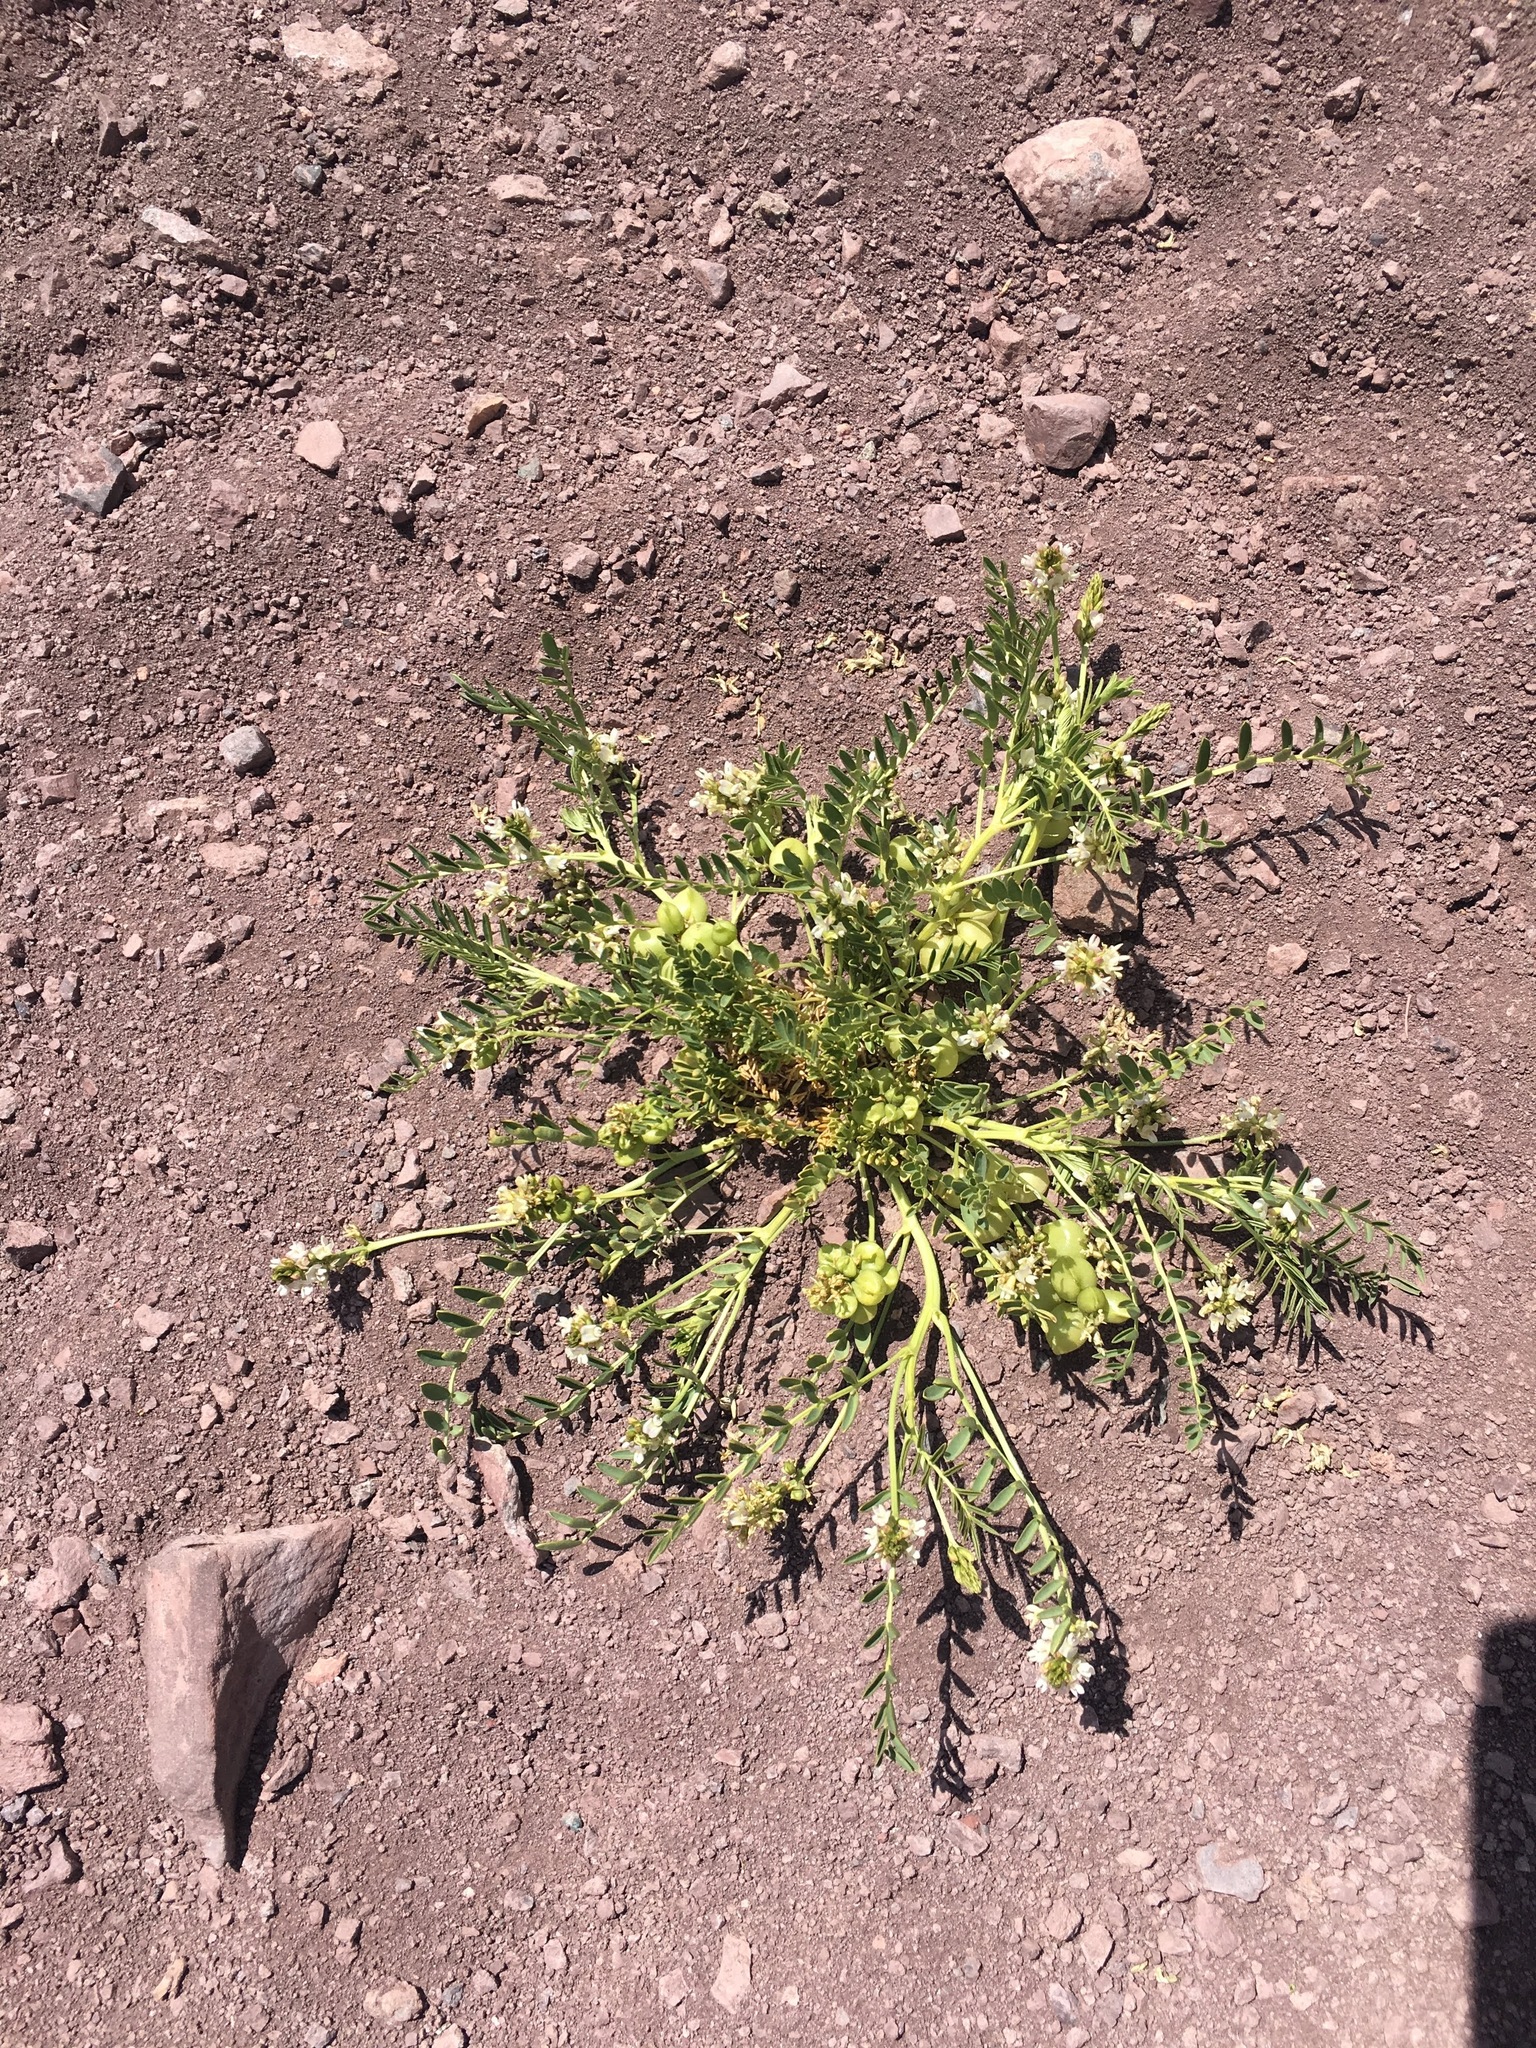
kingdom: Plantae
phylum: Tracheophyta
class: Magnoliopsida
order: Fabales
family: Fabaceae
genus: Astragalus
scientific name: Astragalus vagus
